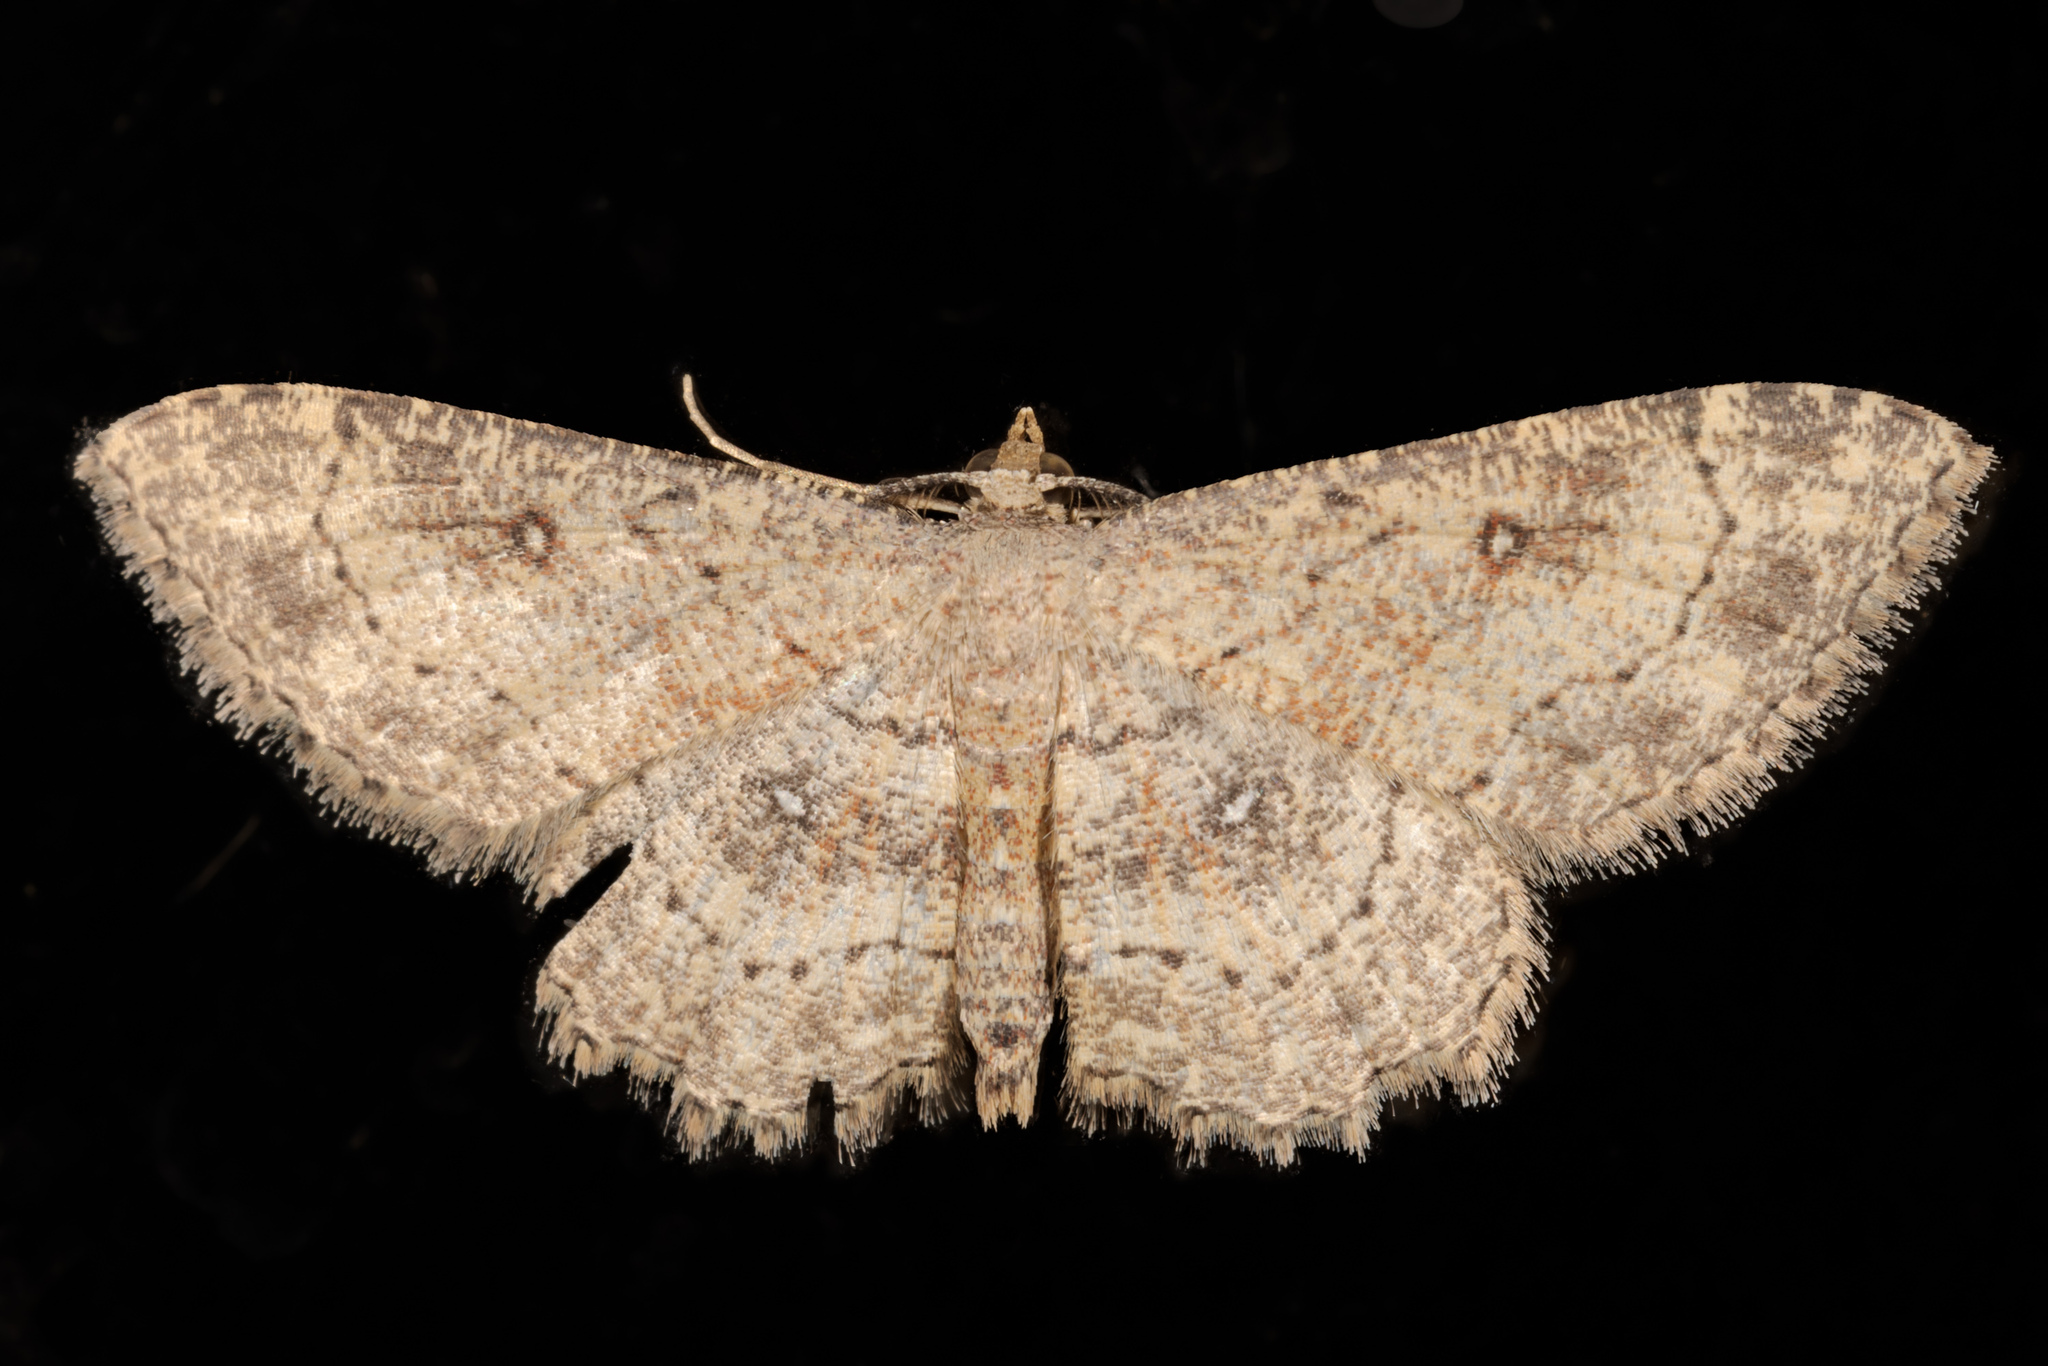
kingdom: Animalia
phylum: Arthropoda
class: Insecta
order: Lepidoptera
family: Geometridae
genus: Cyclophora
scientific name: Cyclophora nanaria
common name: Cankerworm
